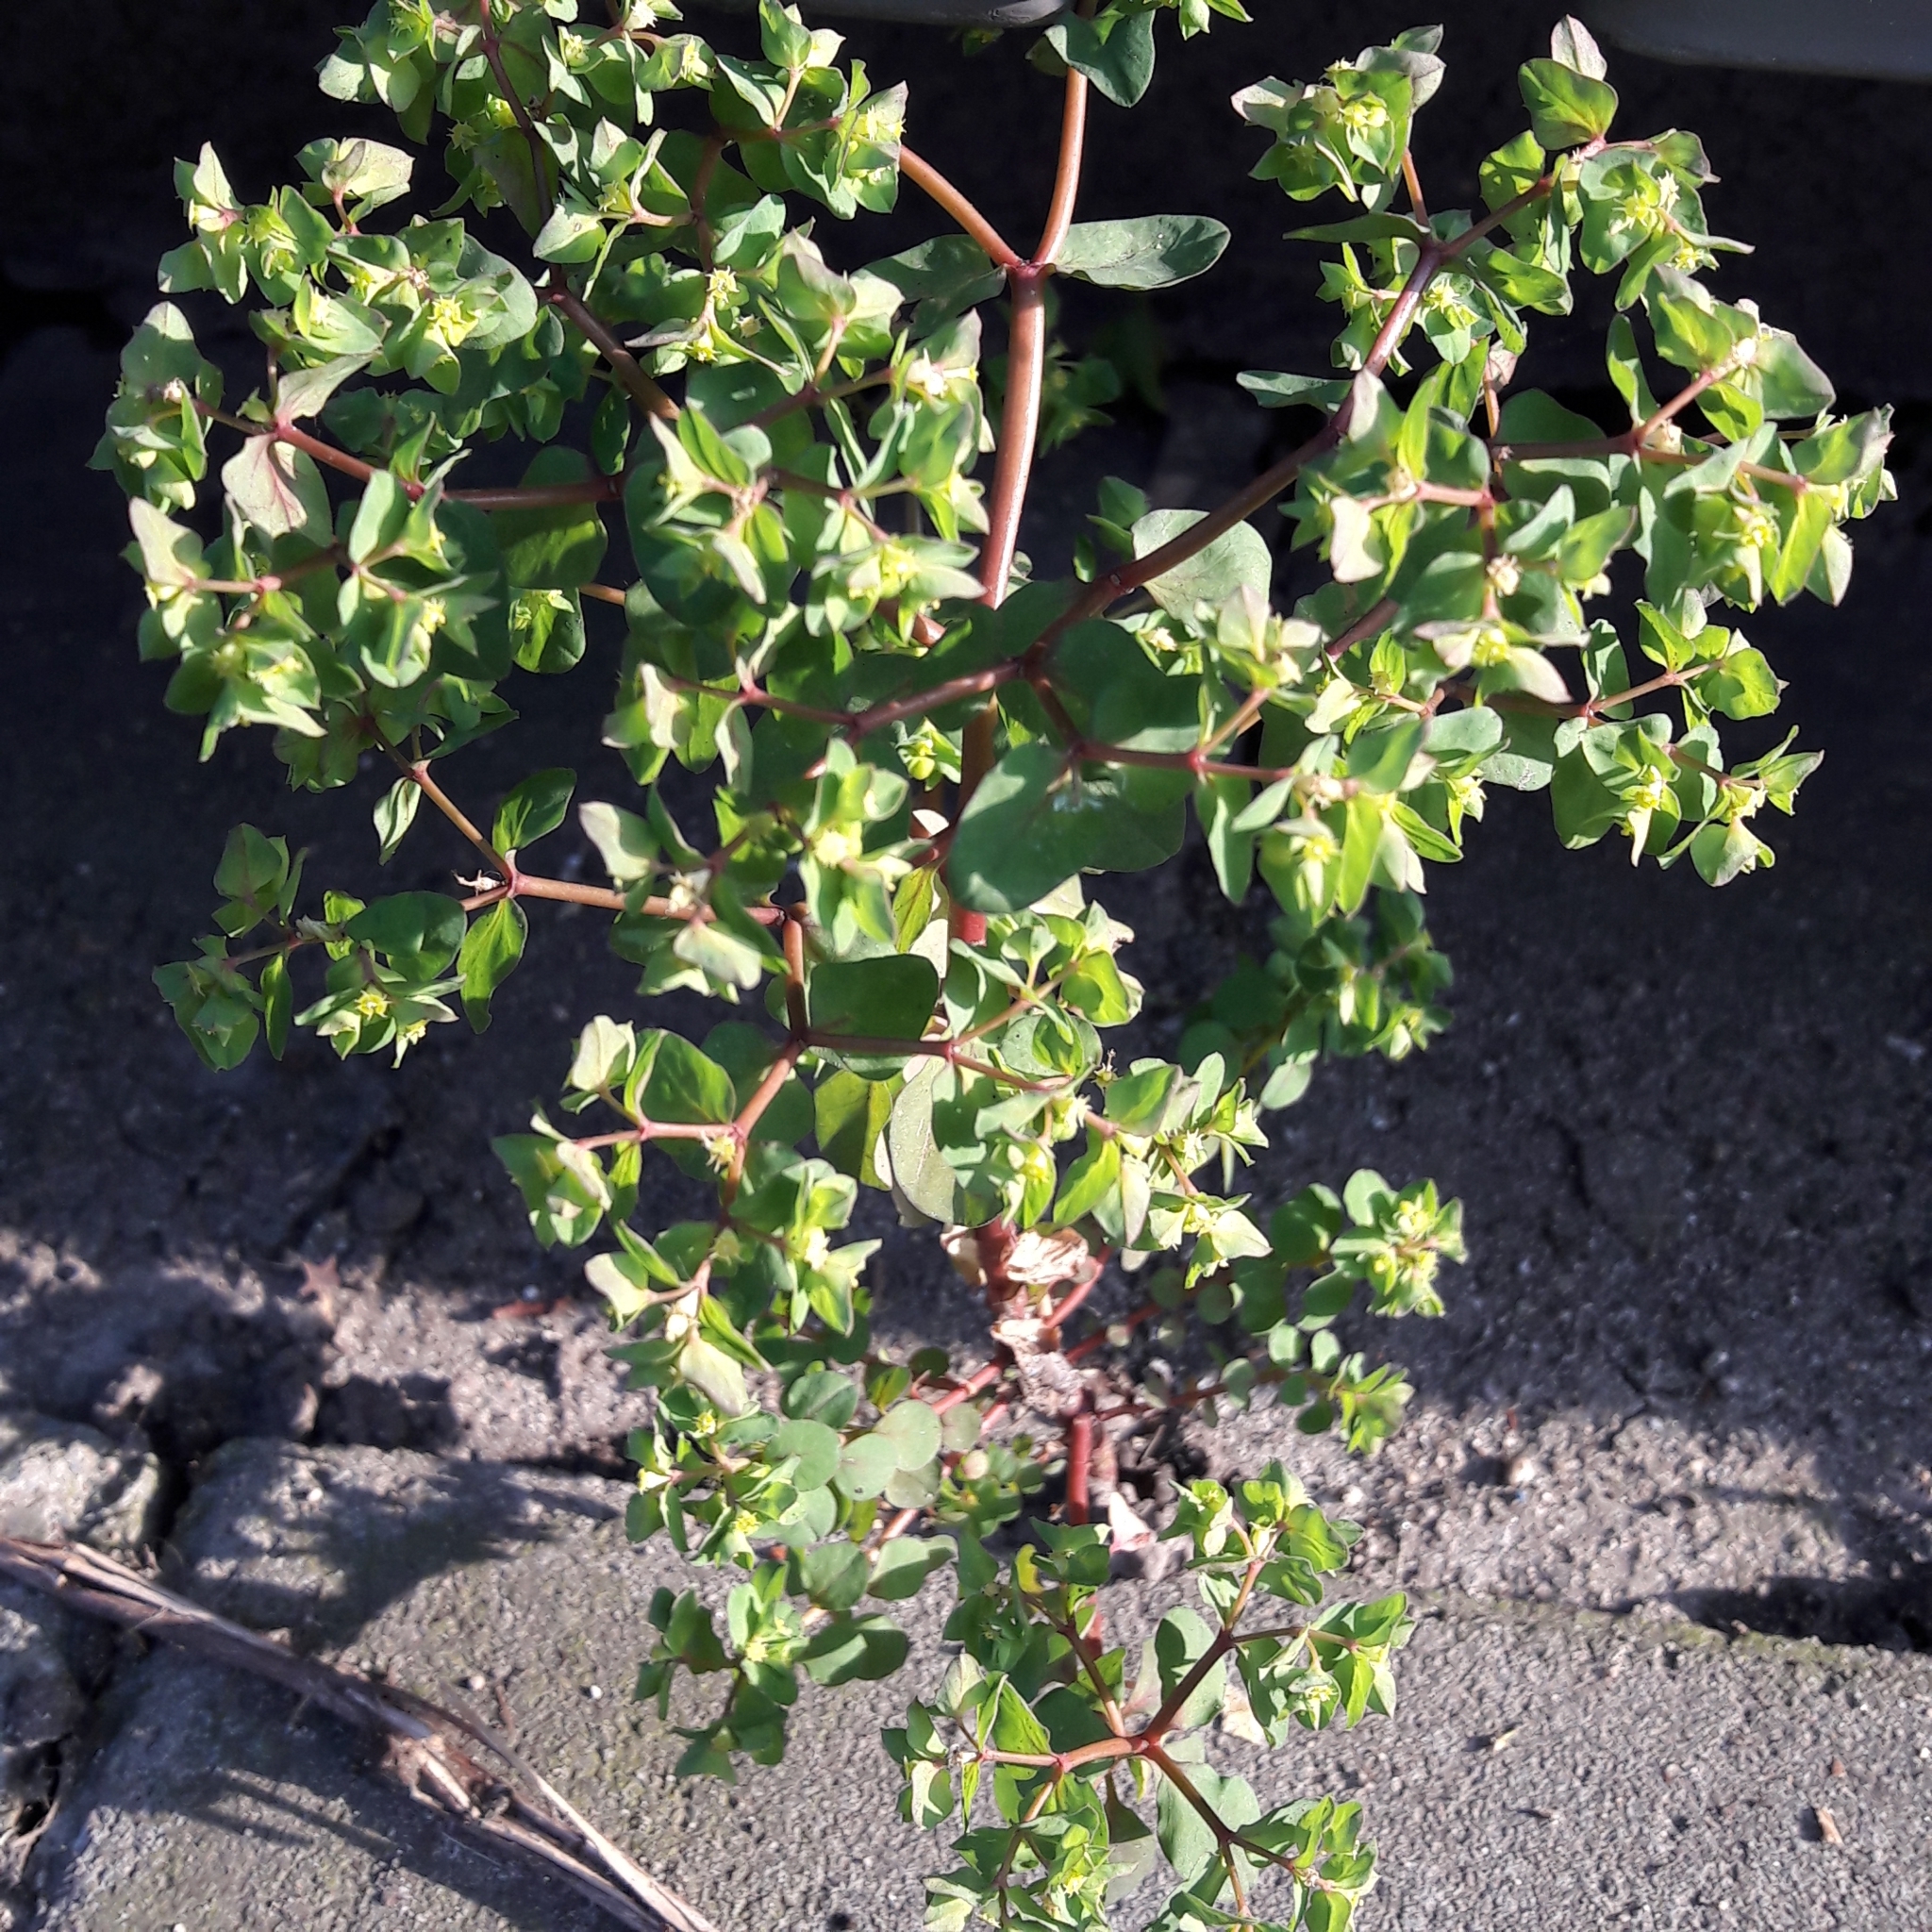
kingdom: Plantae
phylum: Tracheophyta
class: Magnoliopsida
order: Malpighiales
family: Euphorbiaceae
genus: Euphorbia
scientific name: Euphorbia peplus
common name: Petty spurge
